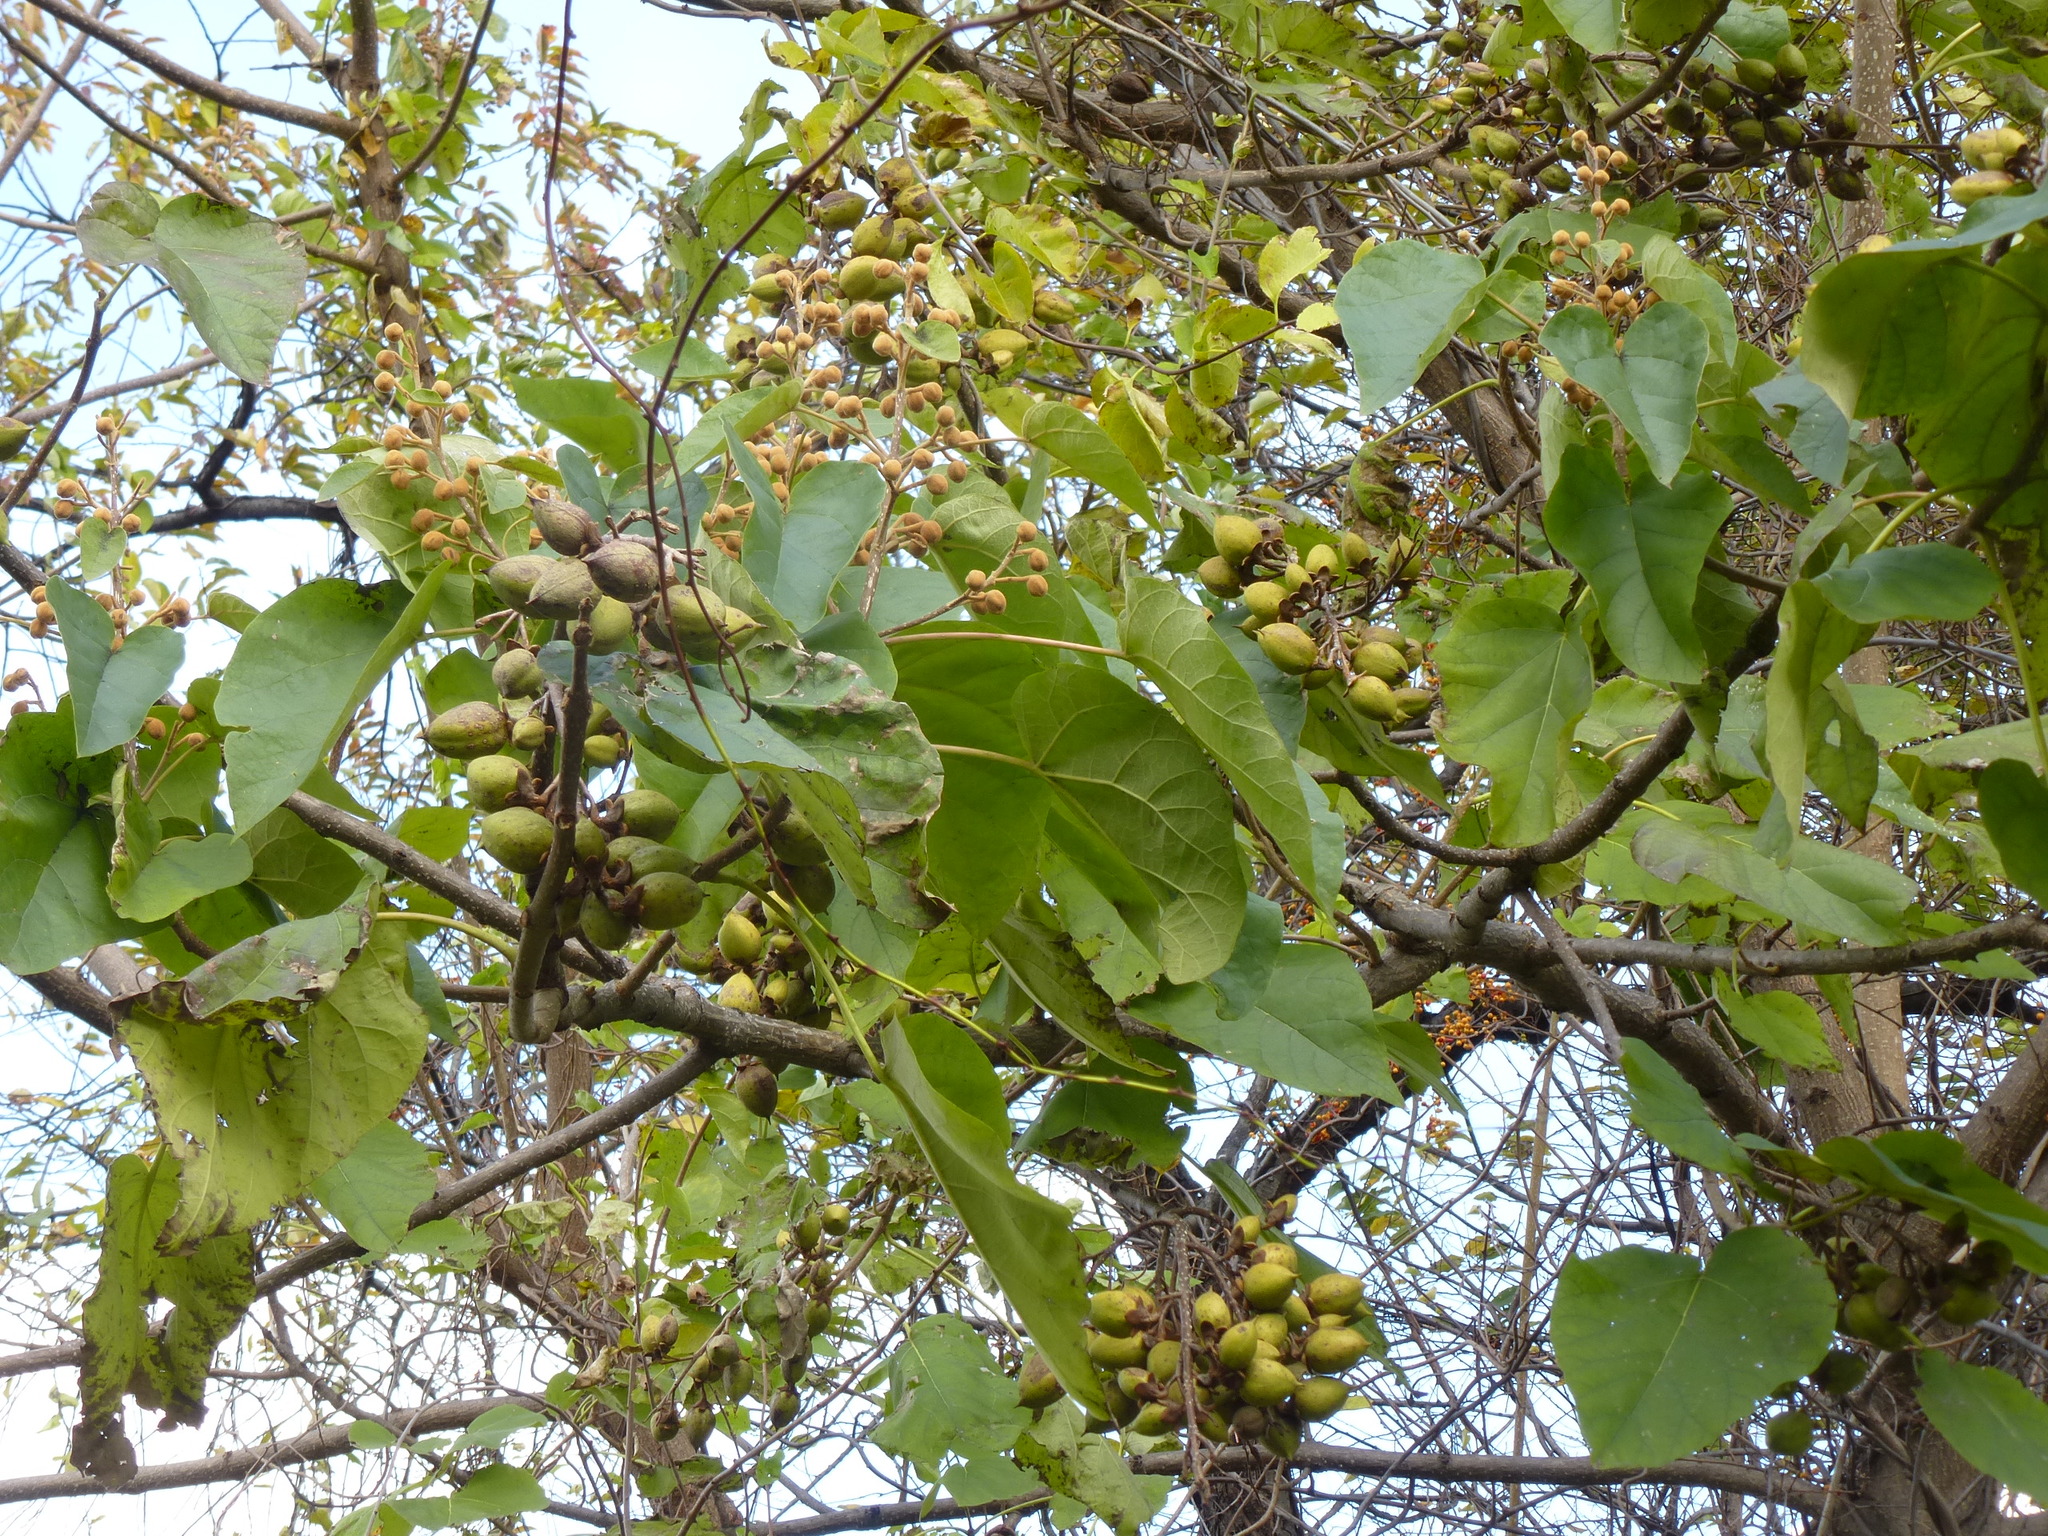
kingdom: Plantae
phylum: Tracheophyta
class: Magnoliopsida
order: Lamiales
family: Paulowniaceae
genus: Paulownia
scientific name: Paulownia tomentosa
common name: Foxglove-tree
